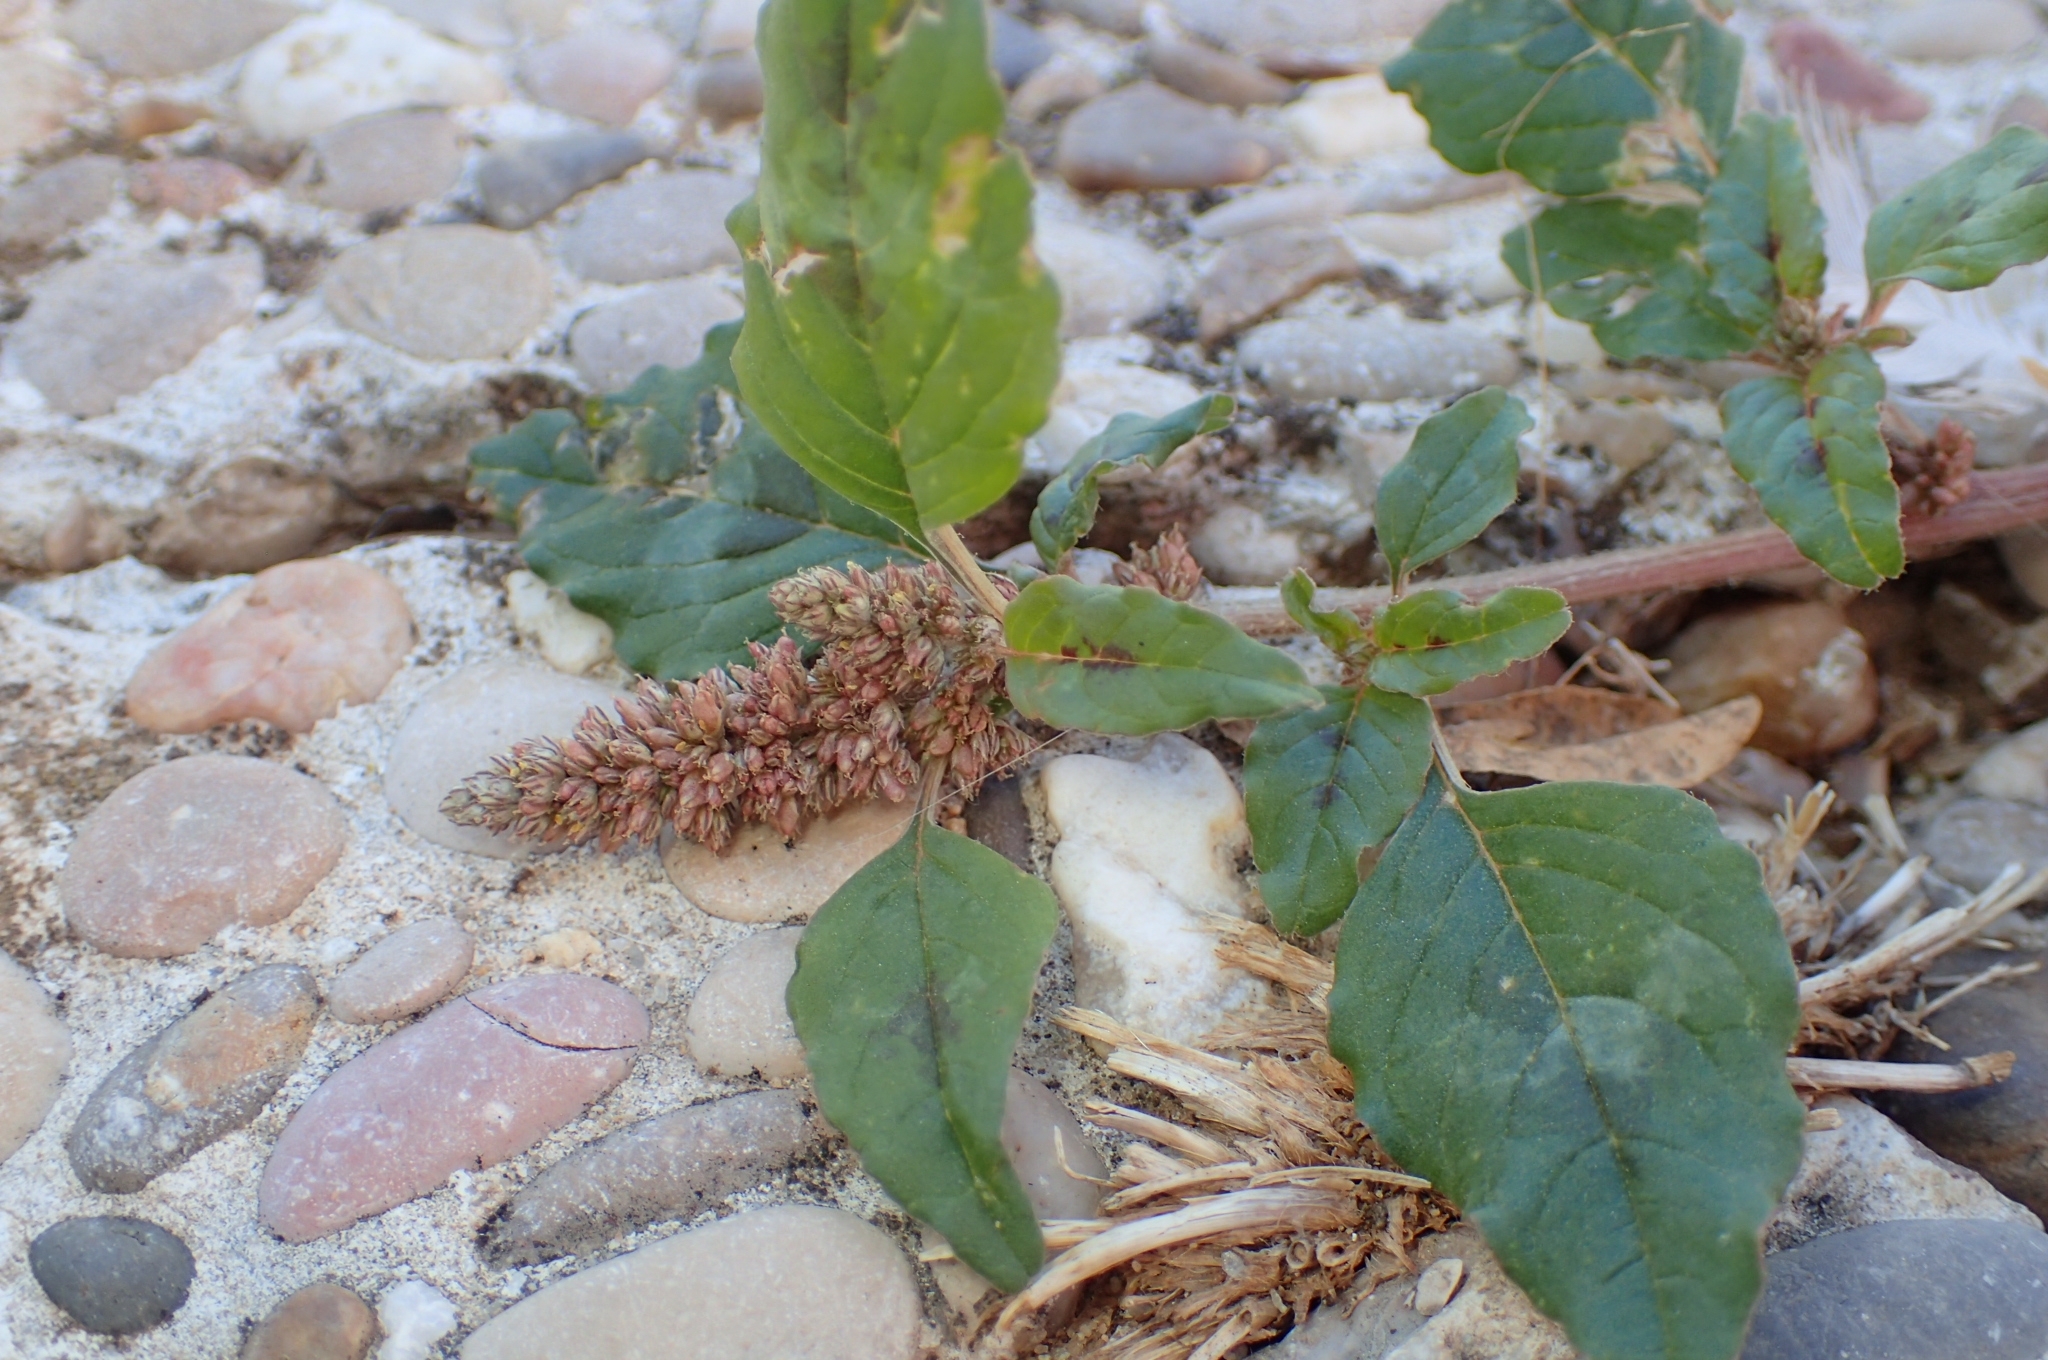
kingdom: Plantae
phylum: Tracheophyta
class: Magnoliopsida
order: Caryophyllales
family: Amaranthaceae
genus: Amaranthus
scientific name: Amaranthus deflexus
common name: Perennial pigweed
